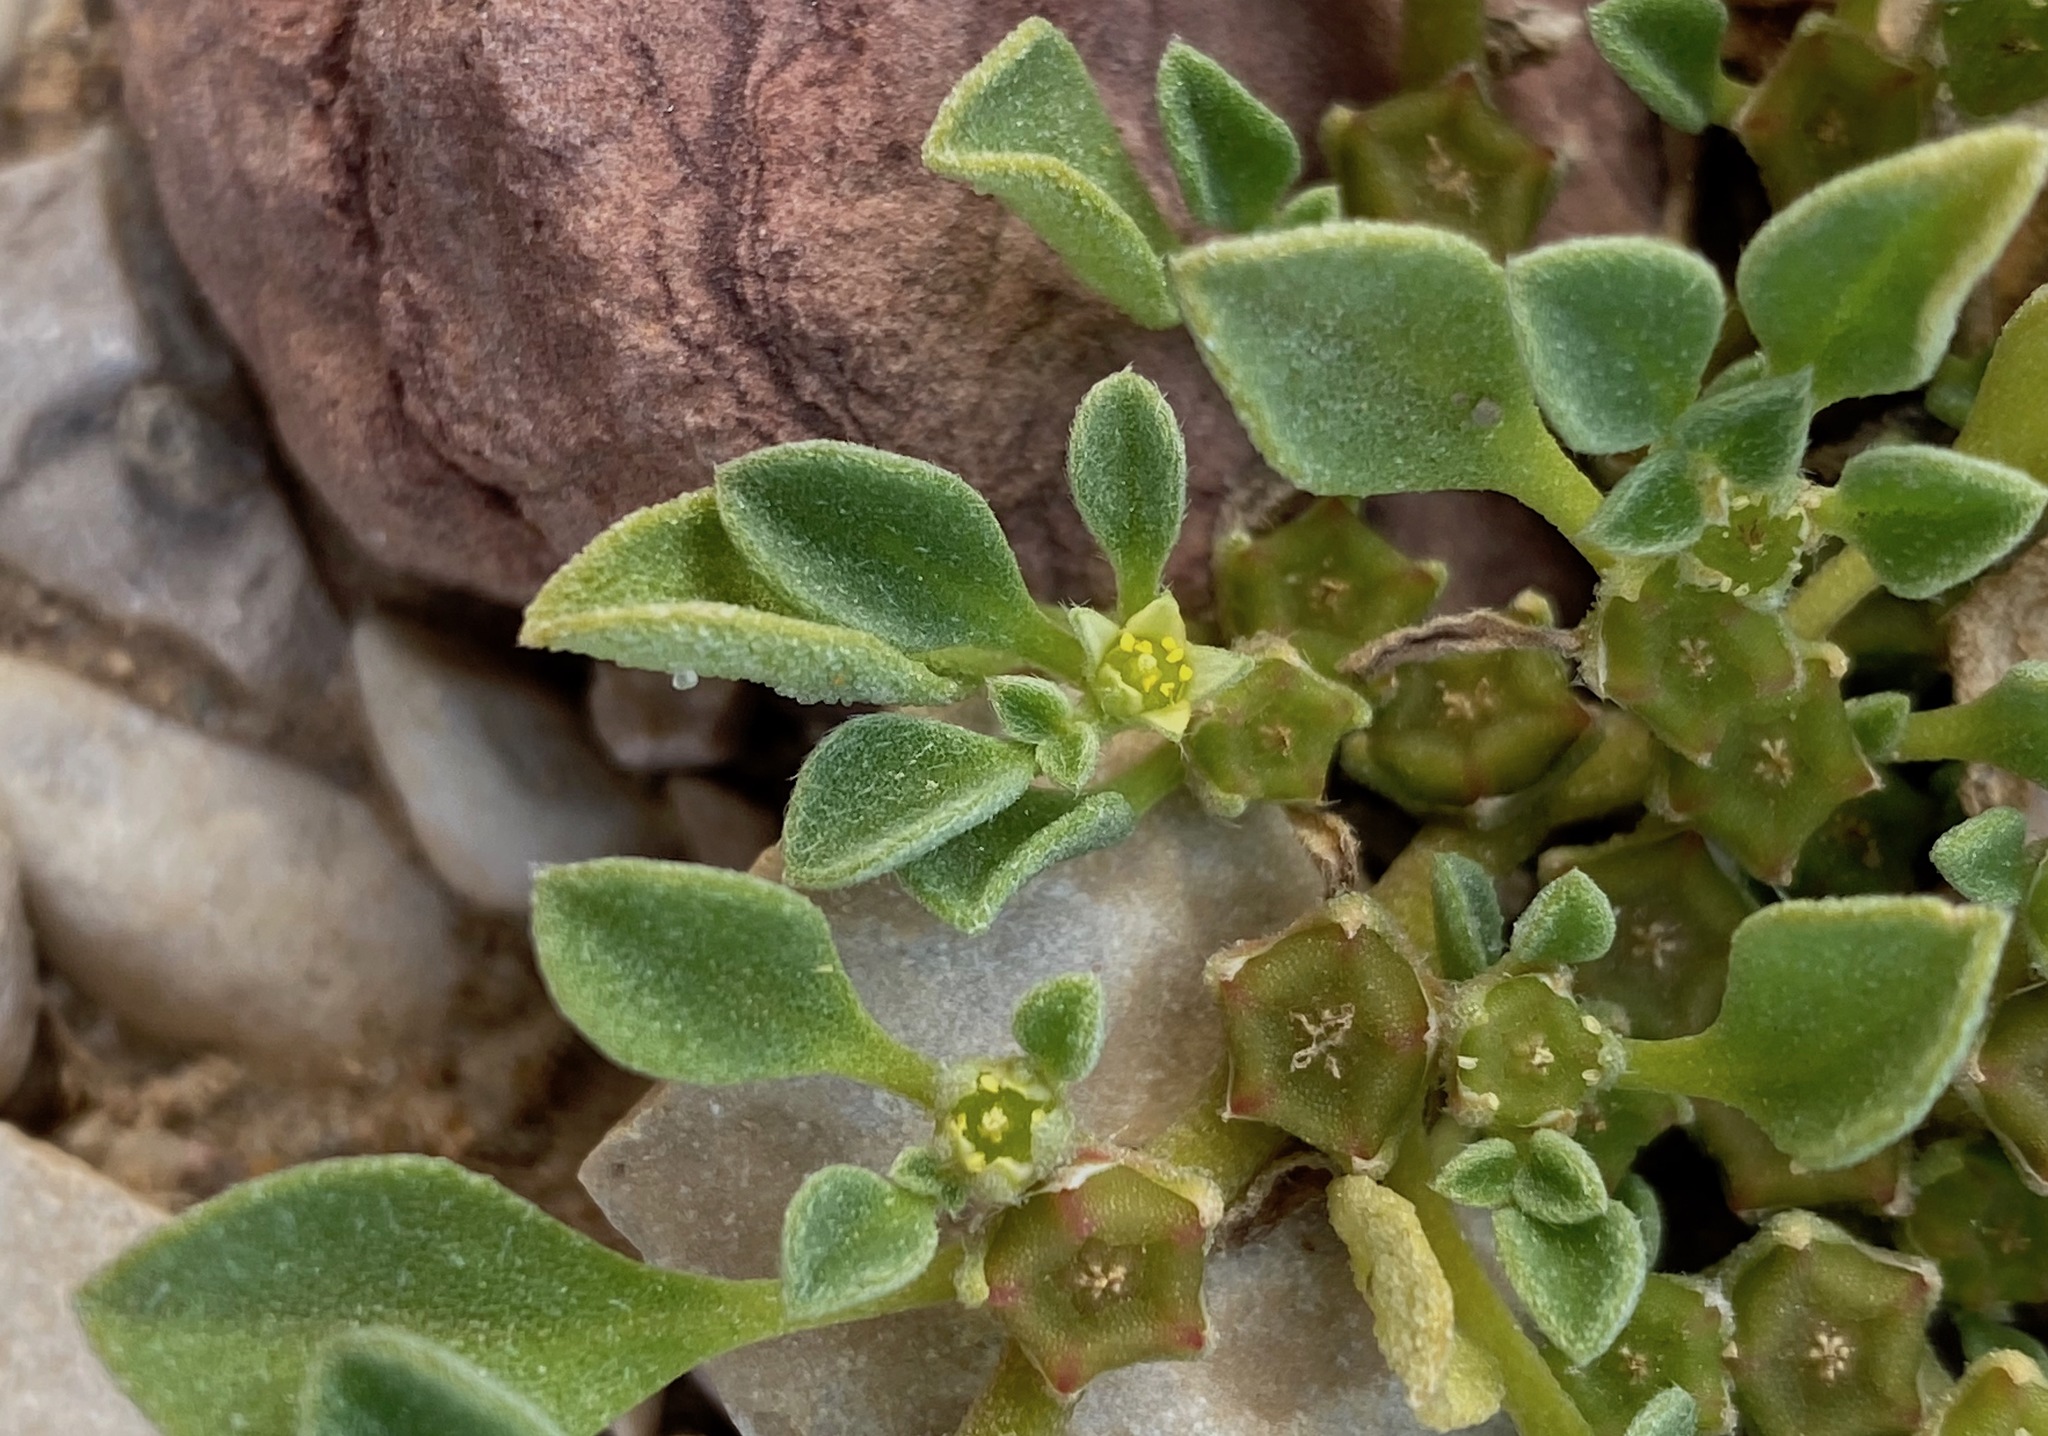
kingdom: Plantae
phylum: Tracheophyta
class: Magnoliopsida
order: Caryophyllales
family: Aizoaceae
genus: Aizoon
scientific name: Aizoon canariense
